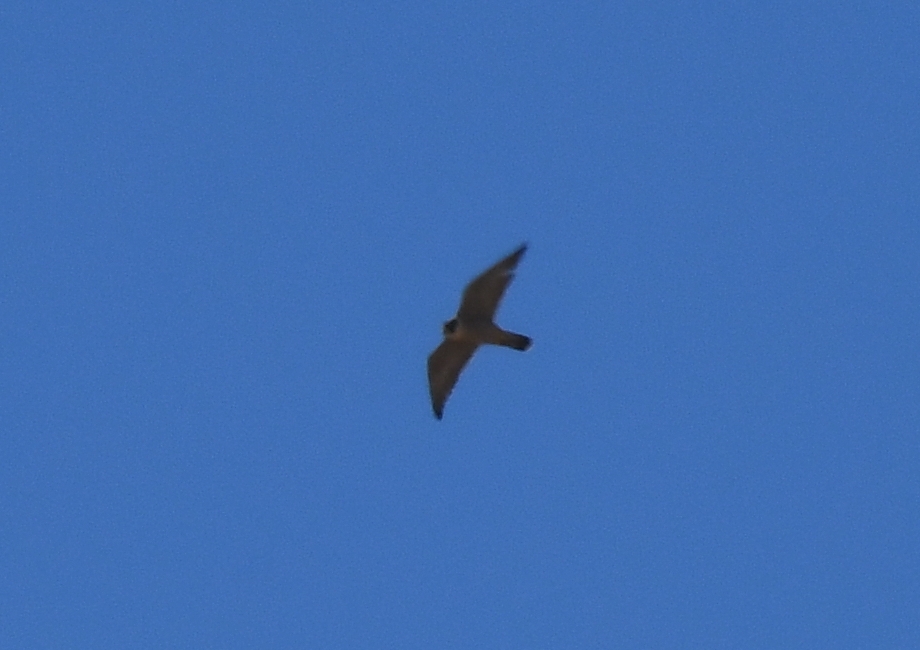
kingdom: Animalia
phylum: Chordata
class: Aves
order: Falconiformes
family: Falconidae
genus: Falco
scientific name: Falco peregrinus
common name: Peregrine falcon
